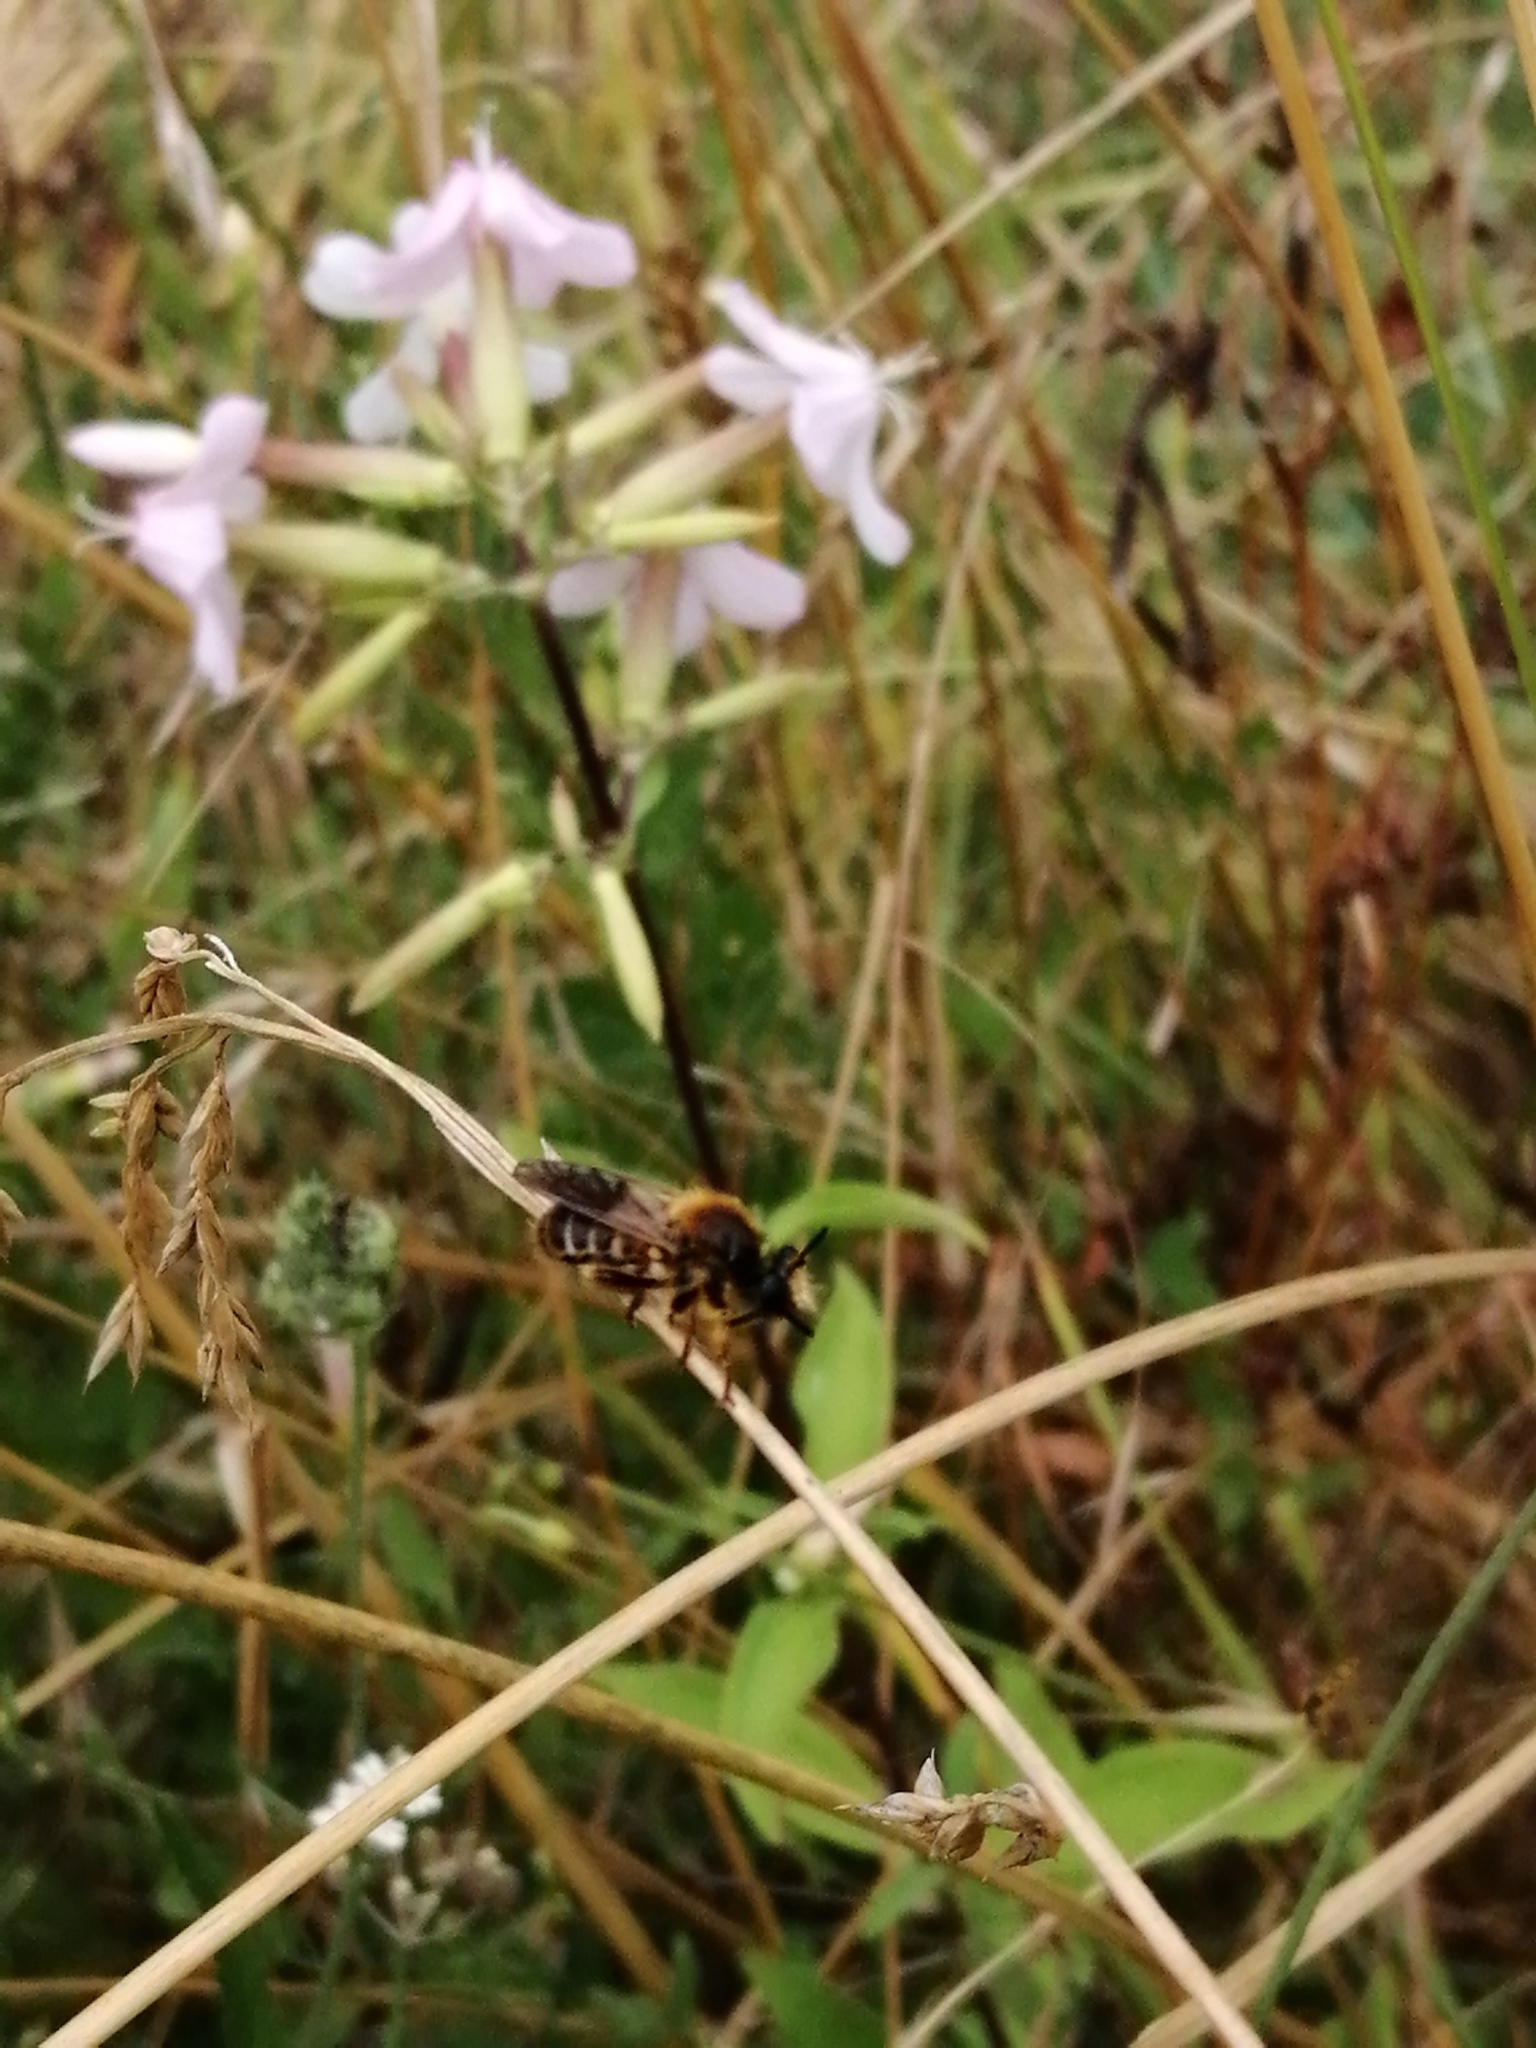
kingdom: Animalia
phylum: Arthropoda
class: Insecta
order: Diptera
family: Asilidae
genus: Lamyra
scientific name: Lamyra fuliginosa
